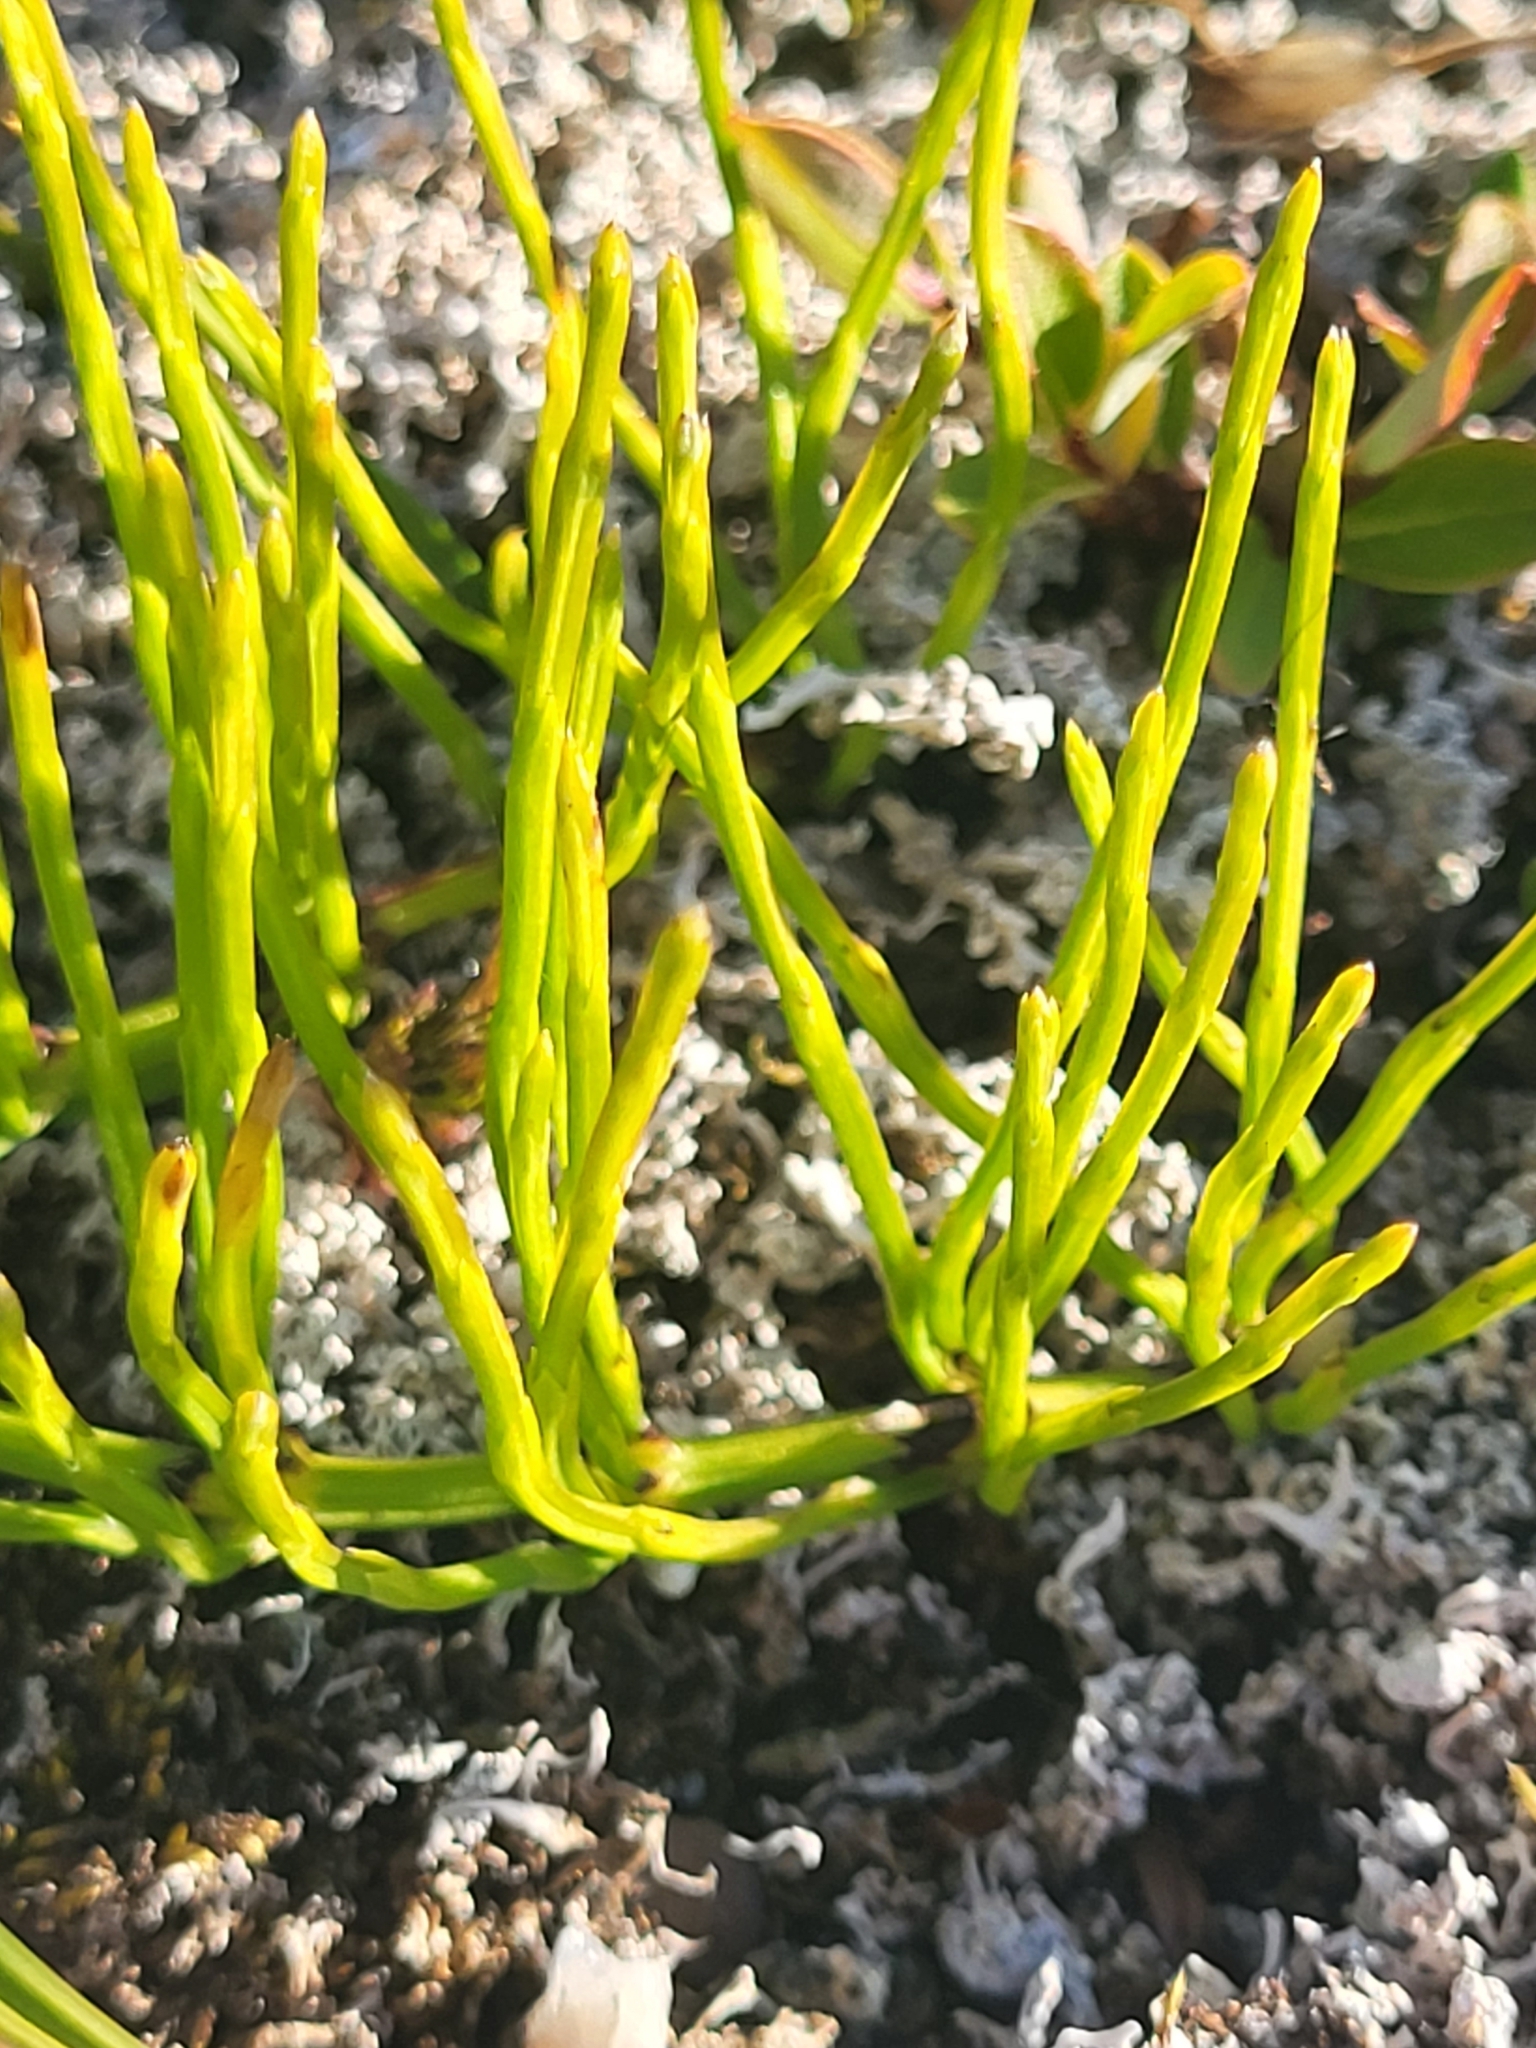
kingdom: Plantae
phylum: Tracheophyta
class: Polypodiopsida
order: Equisetales
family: Equisetaceae
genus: Equisetum
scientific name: Equisetum arvense
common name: Field horsetail
